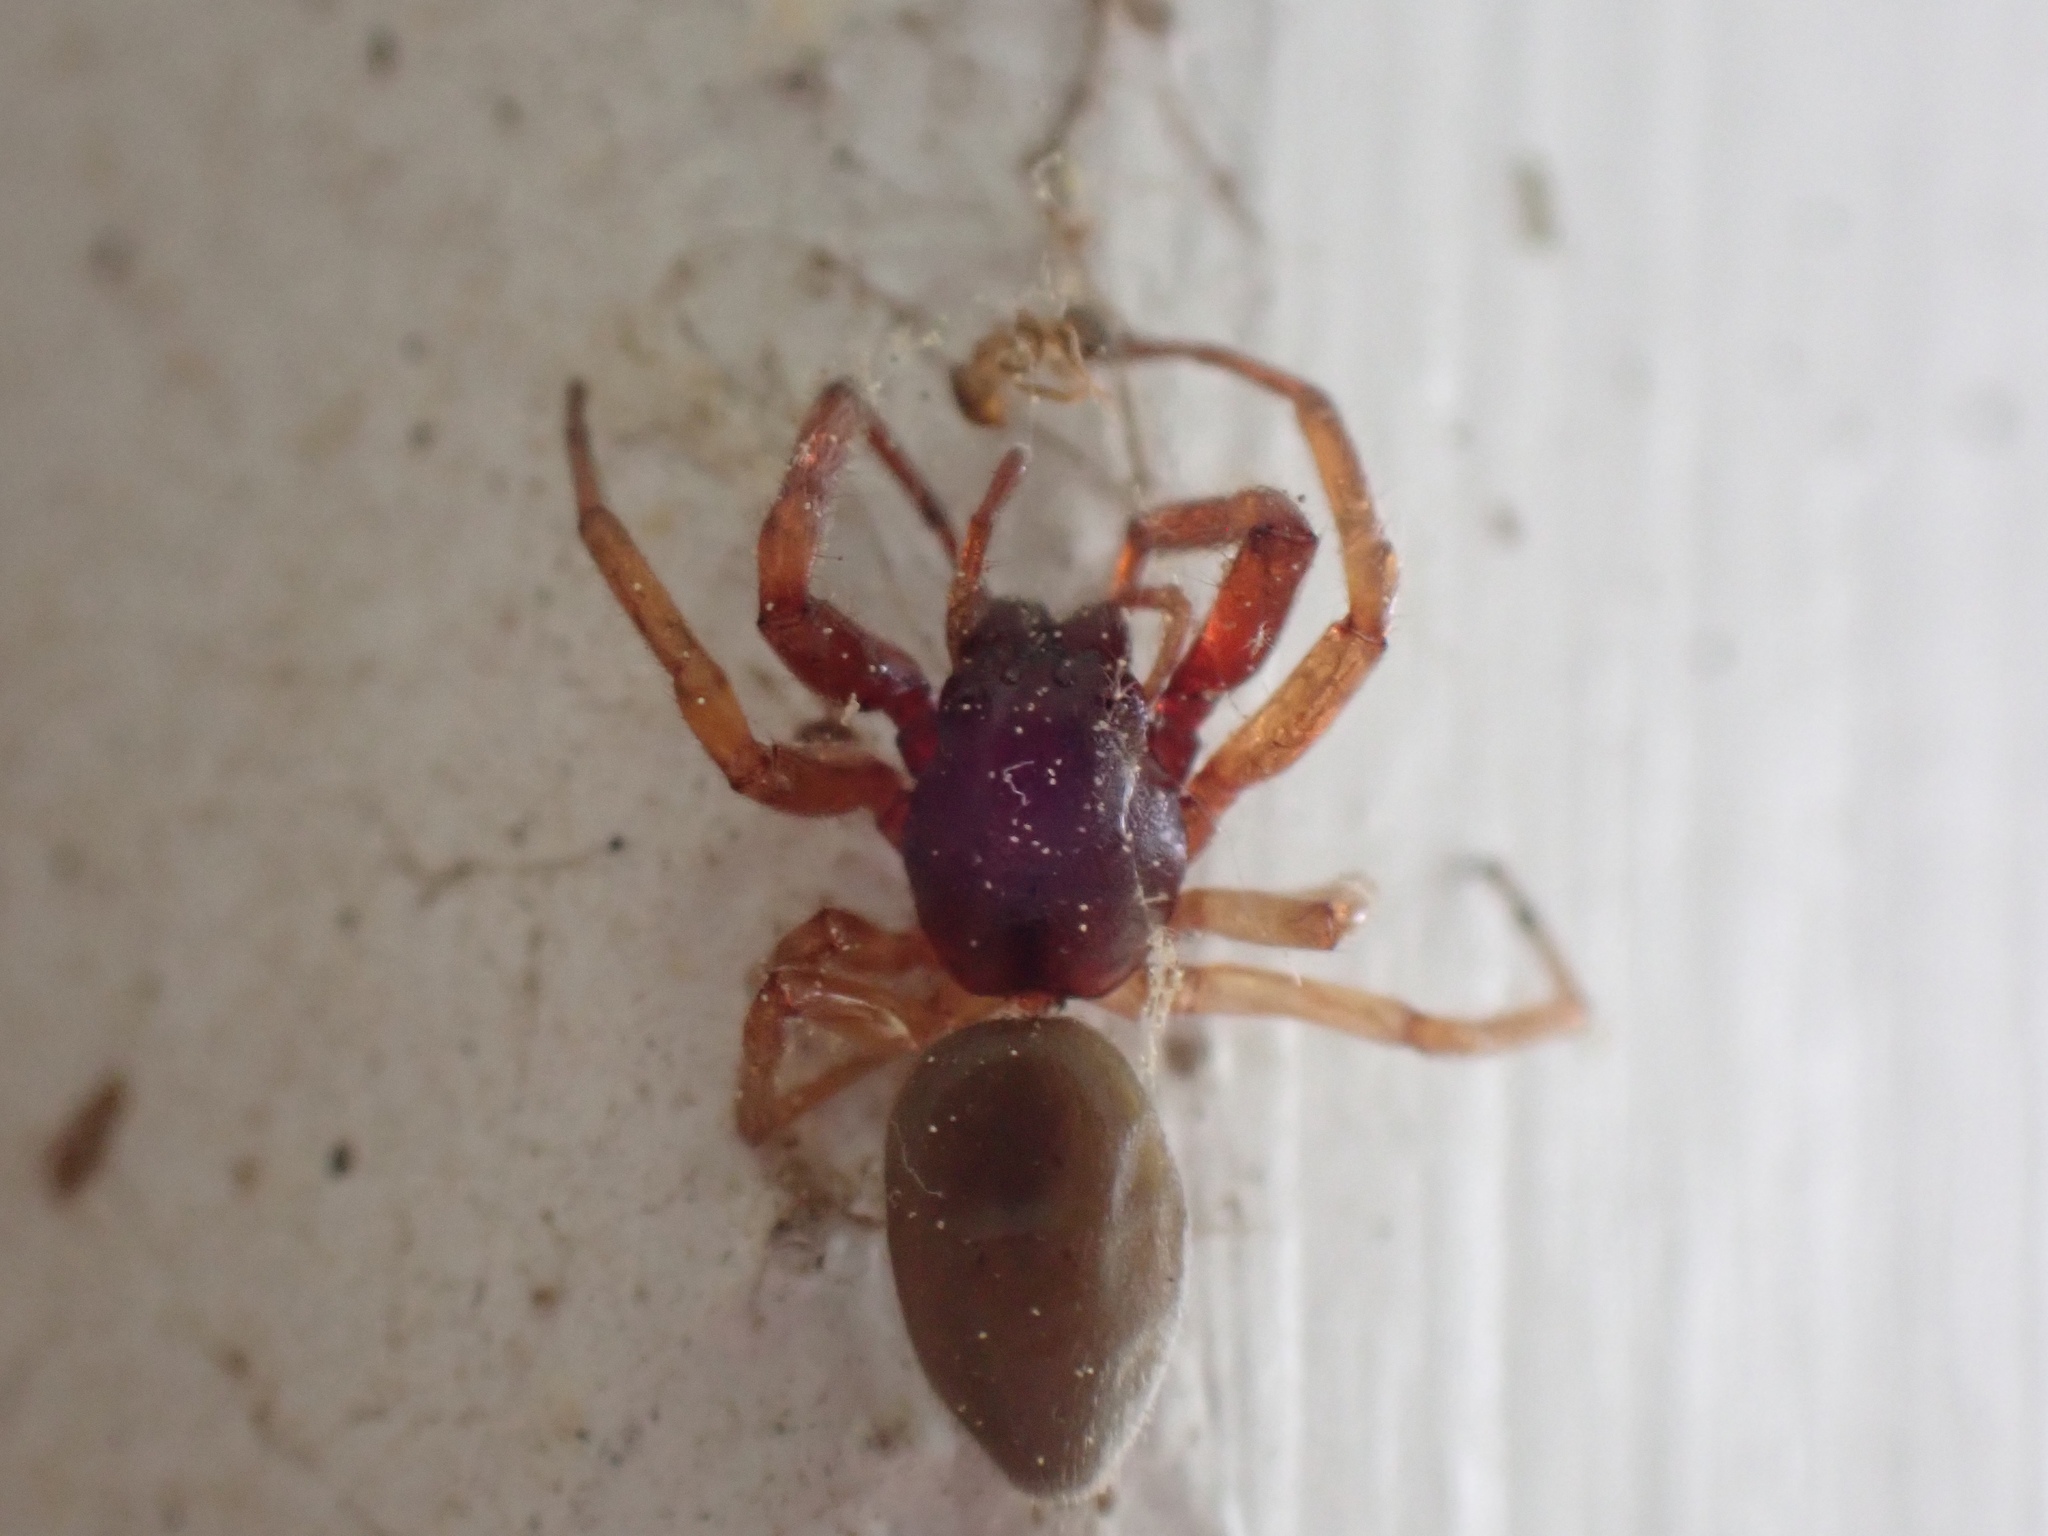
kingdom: Animalia
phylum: Arthropoda
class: Arachnida
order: Araneae
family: Trachelidae
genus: Trachelas
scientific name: Trachelas
